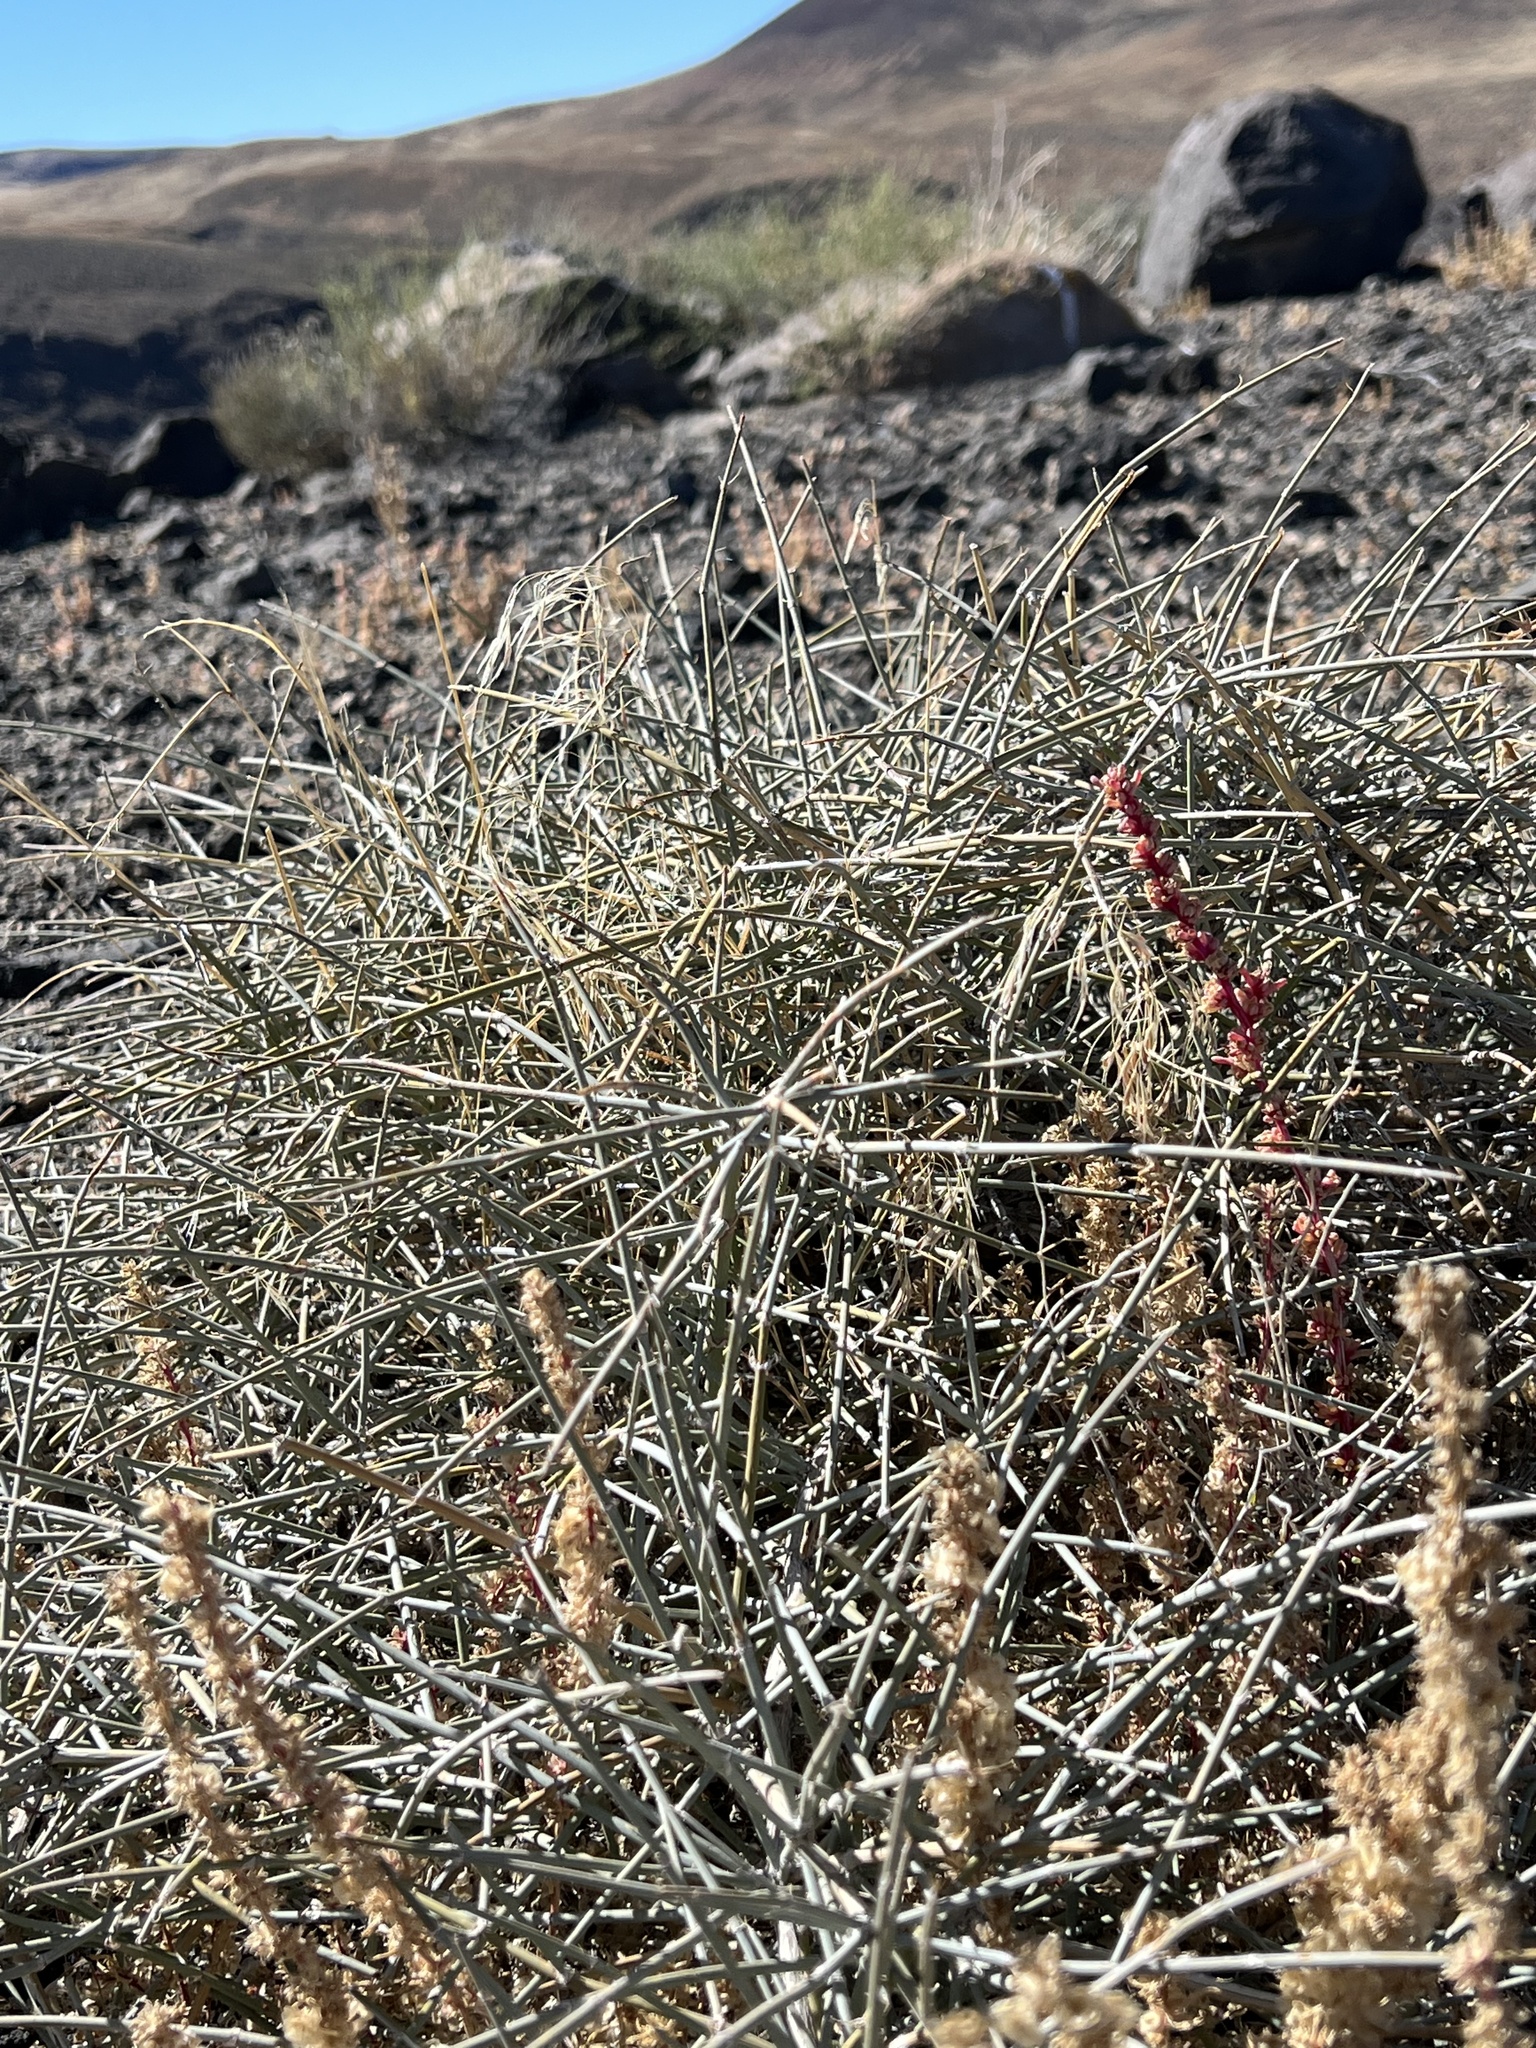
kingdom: Plantae
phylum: Tracheophyta
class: Gnetopsida
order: Ephedrales
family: Ephedraceae
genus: Ephedra
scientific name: Ephedra nevadensis
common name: Gray ephedra
